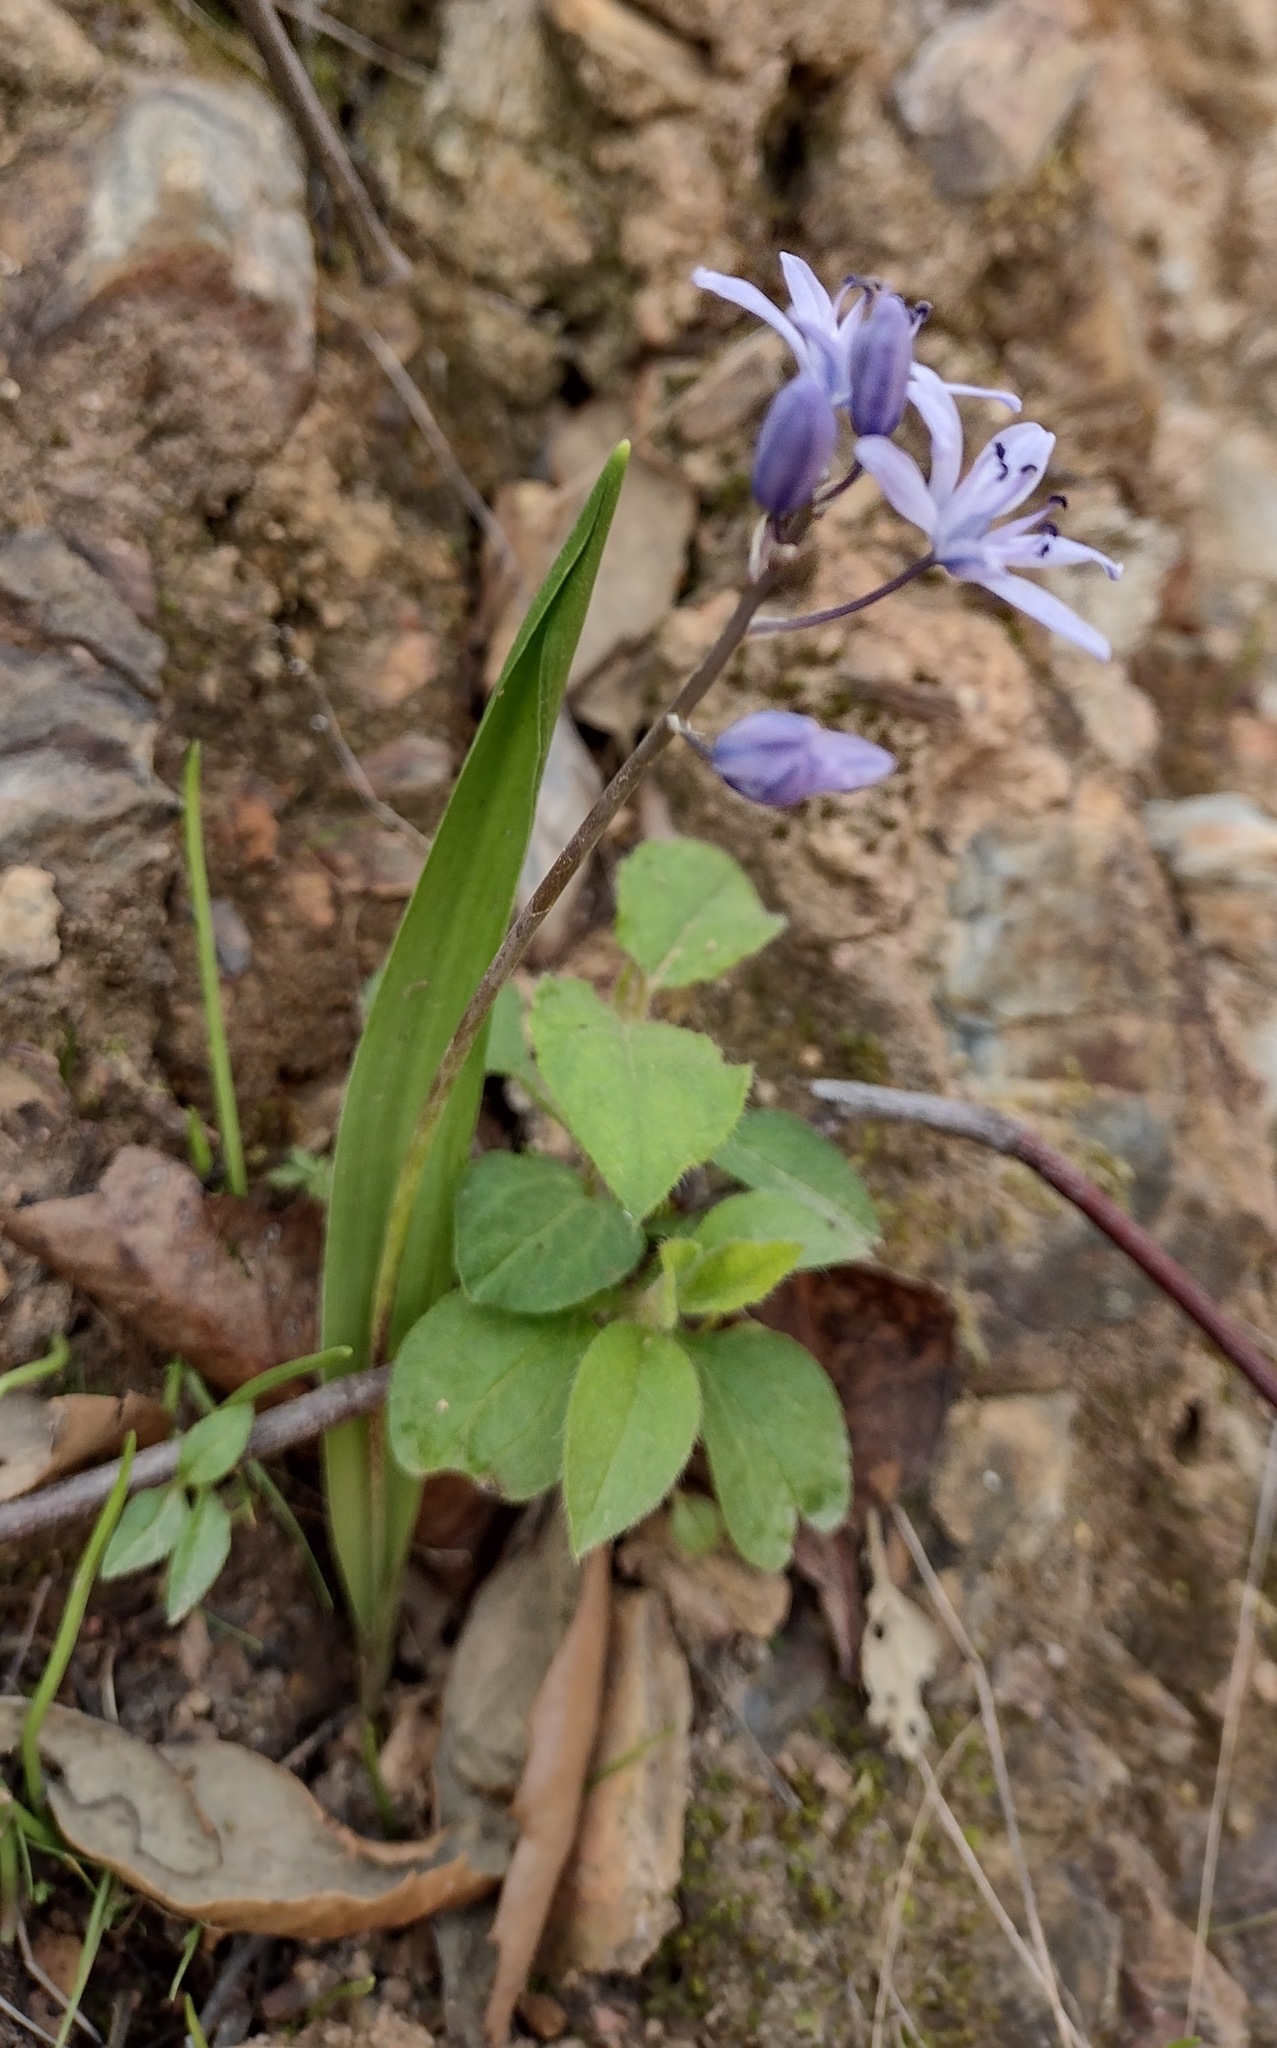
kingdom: Plantae
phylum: Tracheophyta
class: Liliopsida
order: Asparagales
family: Asparagaceae
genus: Scilla
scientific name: Scilla monophyllos
